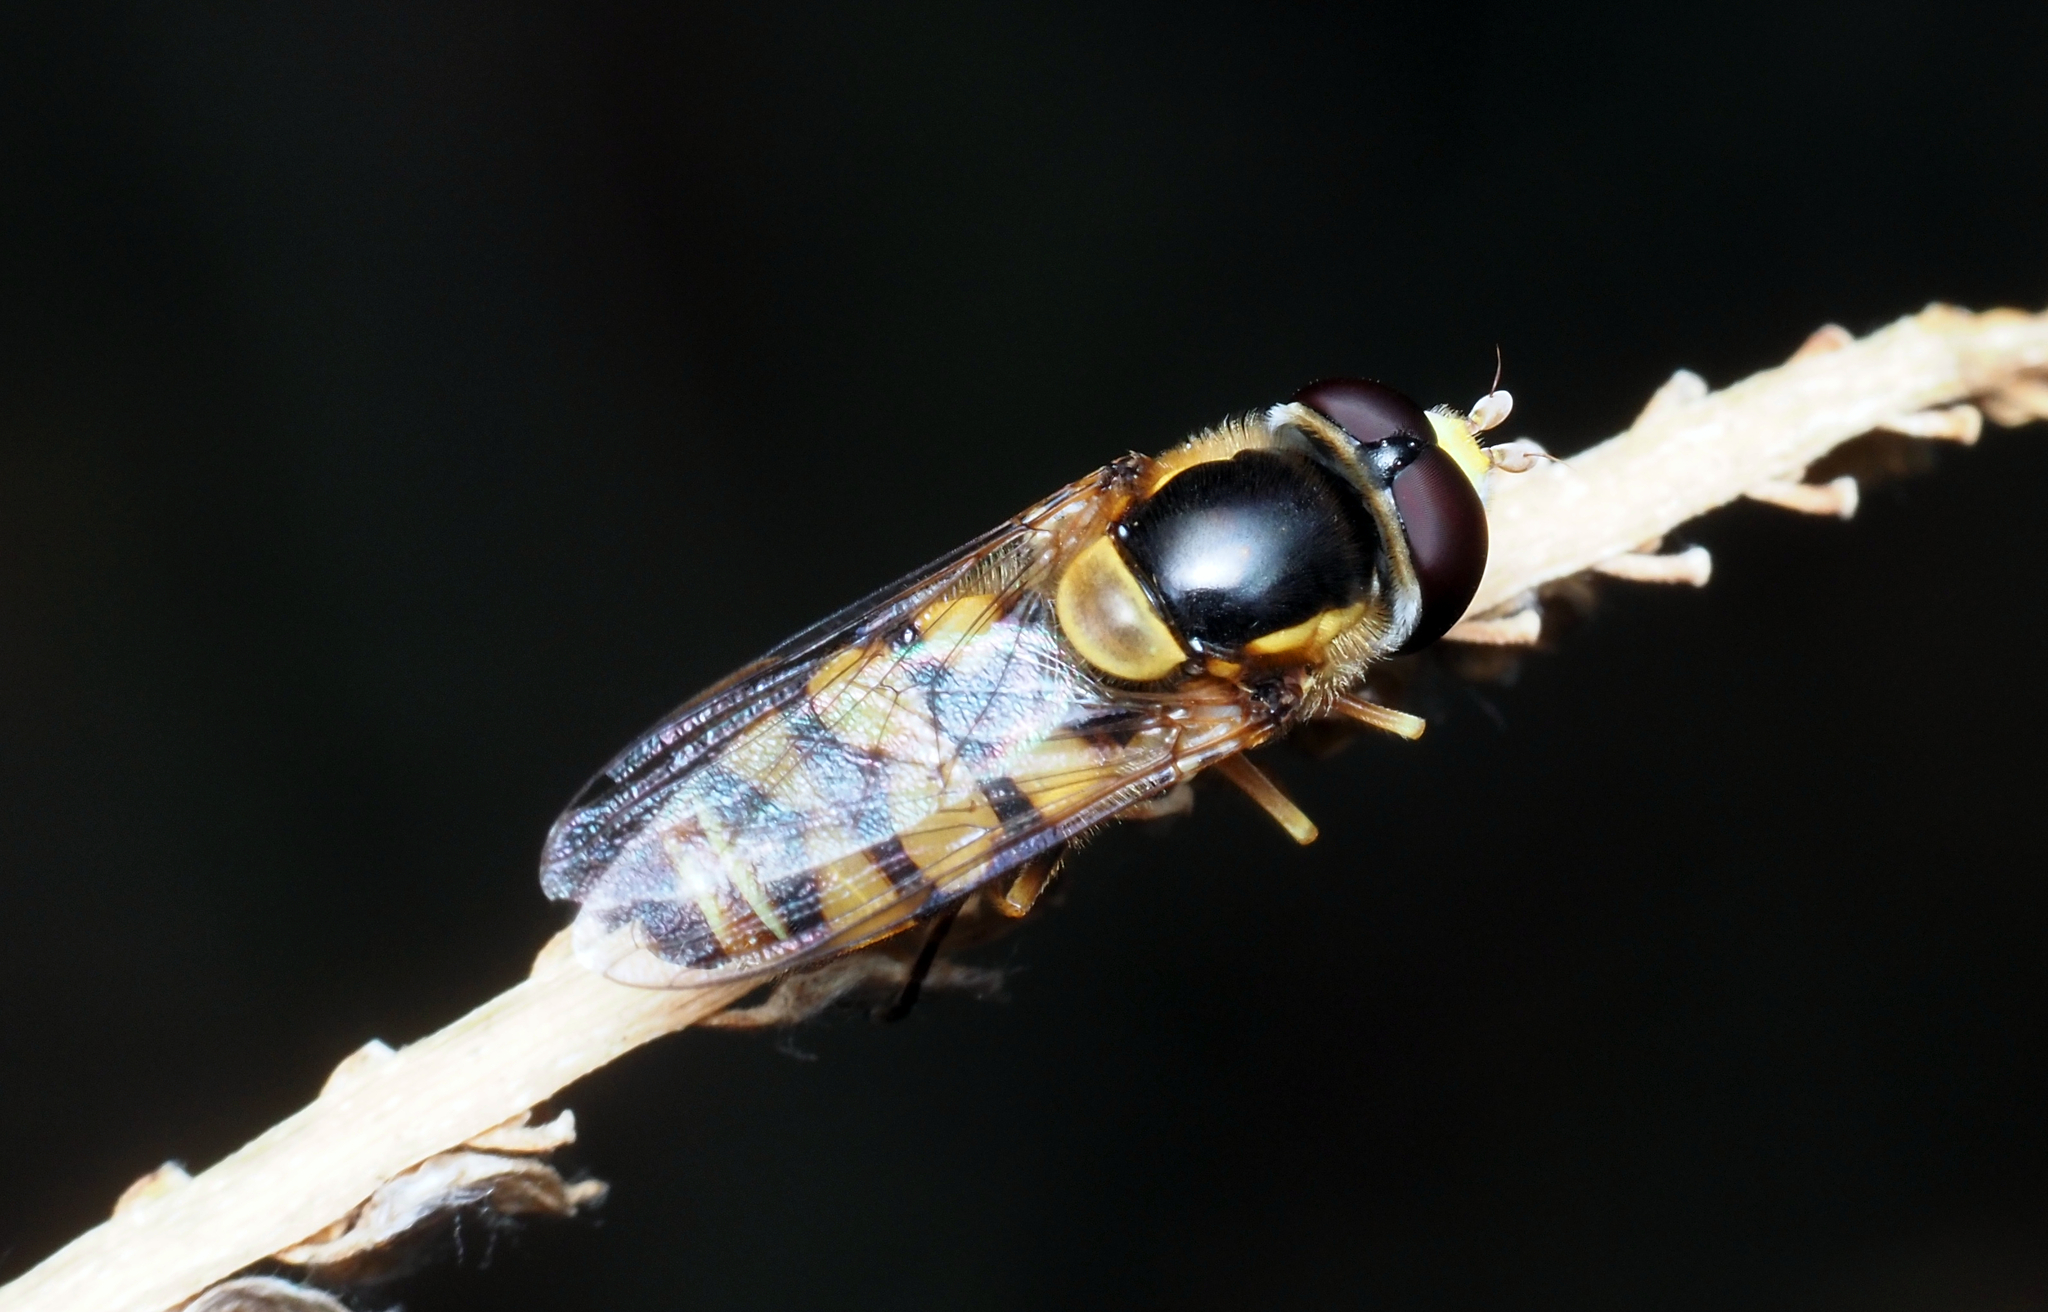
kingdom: Animalia
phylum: Arthropoda
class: Insecta
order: Diptera
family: Syrphidae
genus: Simosyrphus
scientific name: Simosyrphus grandicornis
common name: Hoverfly
